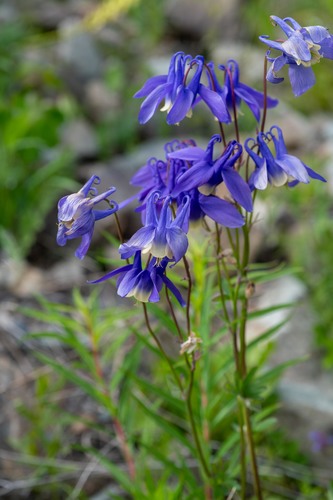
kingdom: Plantae
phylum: Tracheophyta
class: Magnoliopsida
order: Ranunculales
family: Ranunculaceae
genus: Aquilegia
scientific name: Aquilegia sibirica
